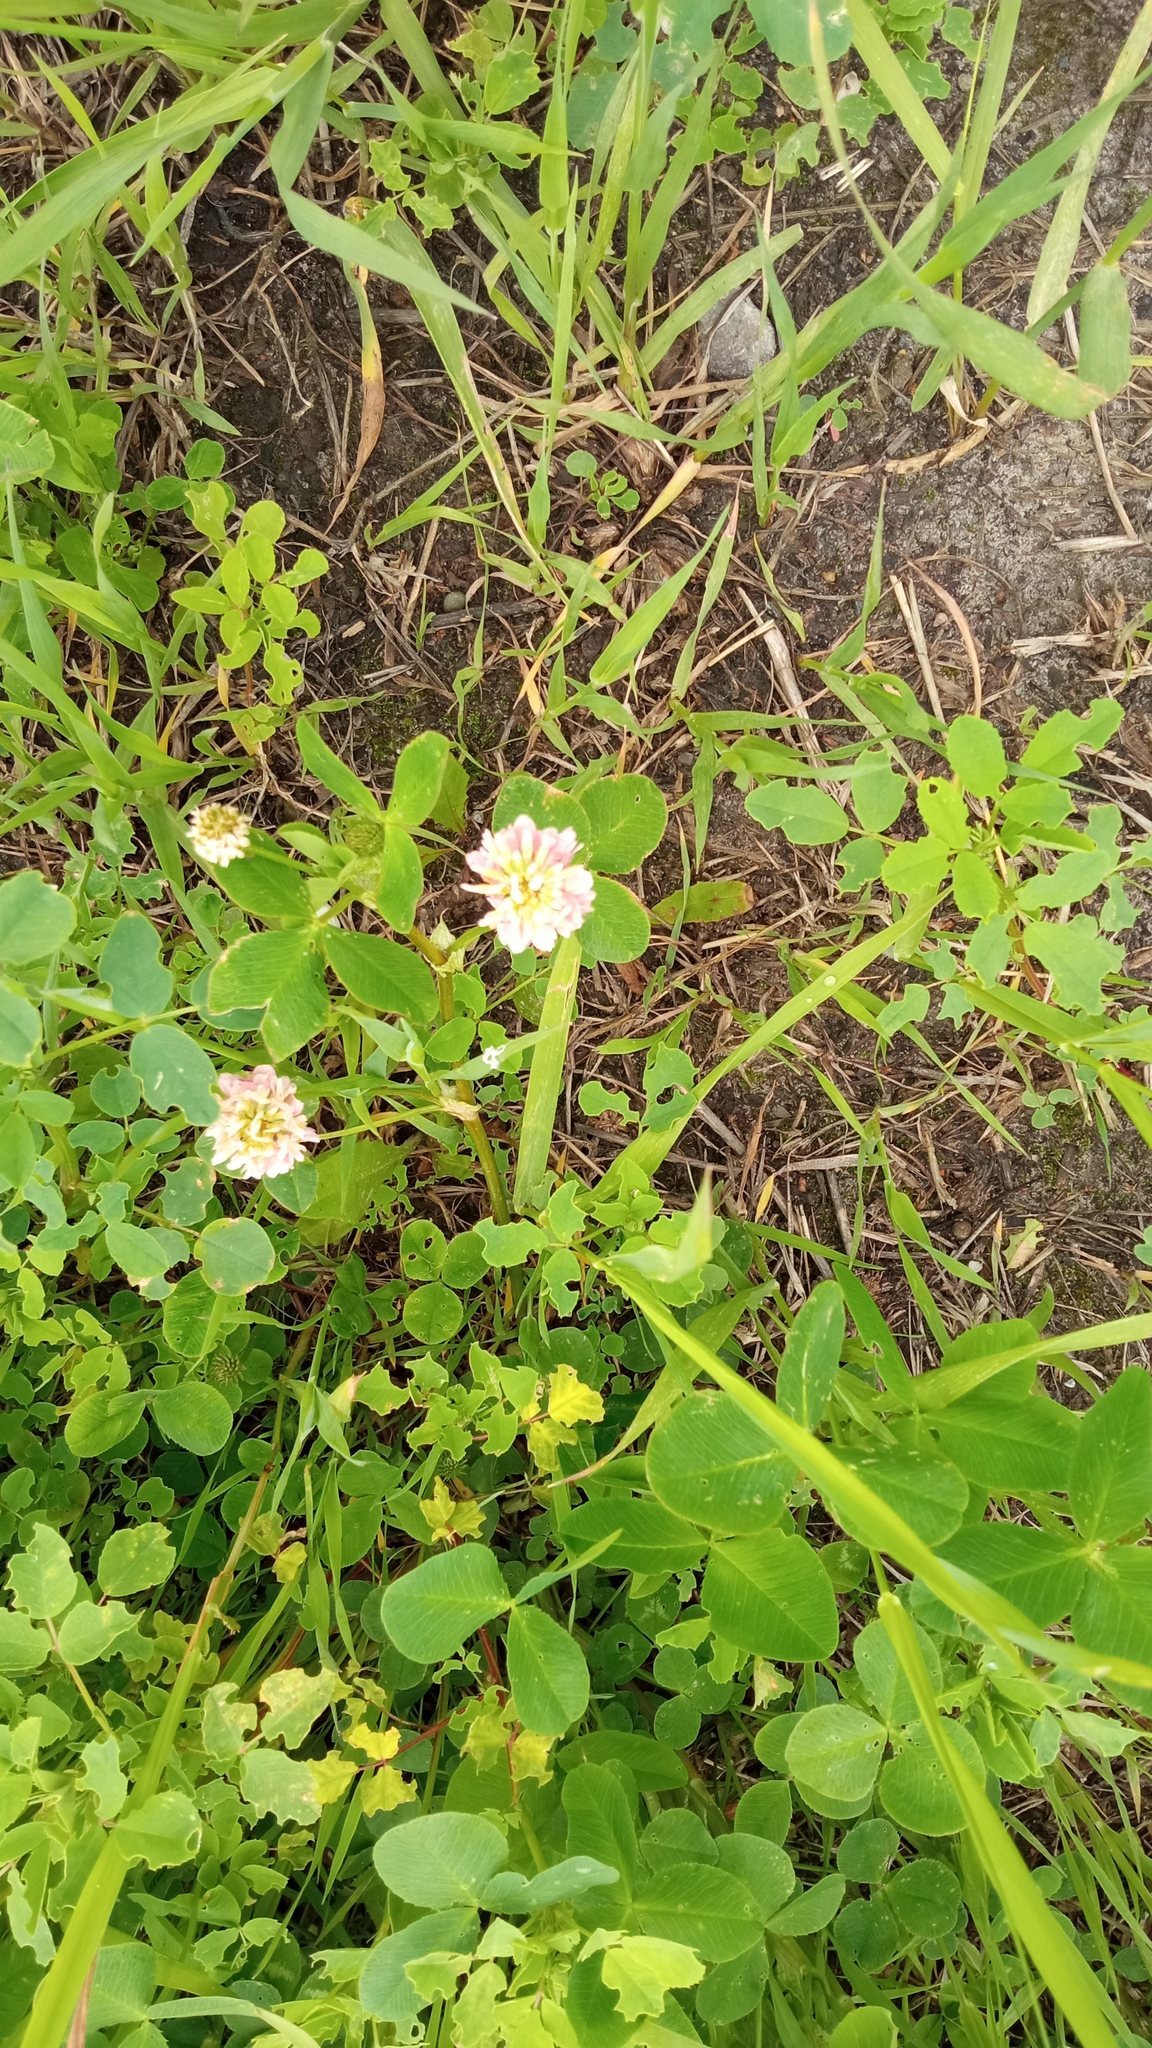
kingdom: Plantae
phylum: Tracheophyta
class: Magnoliopsida
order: Fabales
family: Fabaceae
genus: Trifolium
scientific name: Trifolium hybridum
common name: Alsike clover
